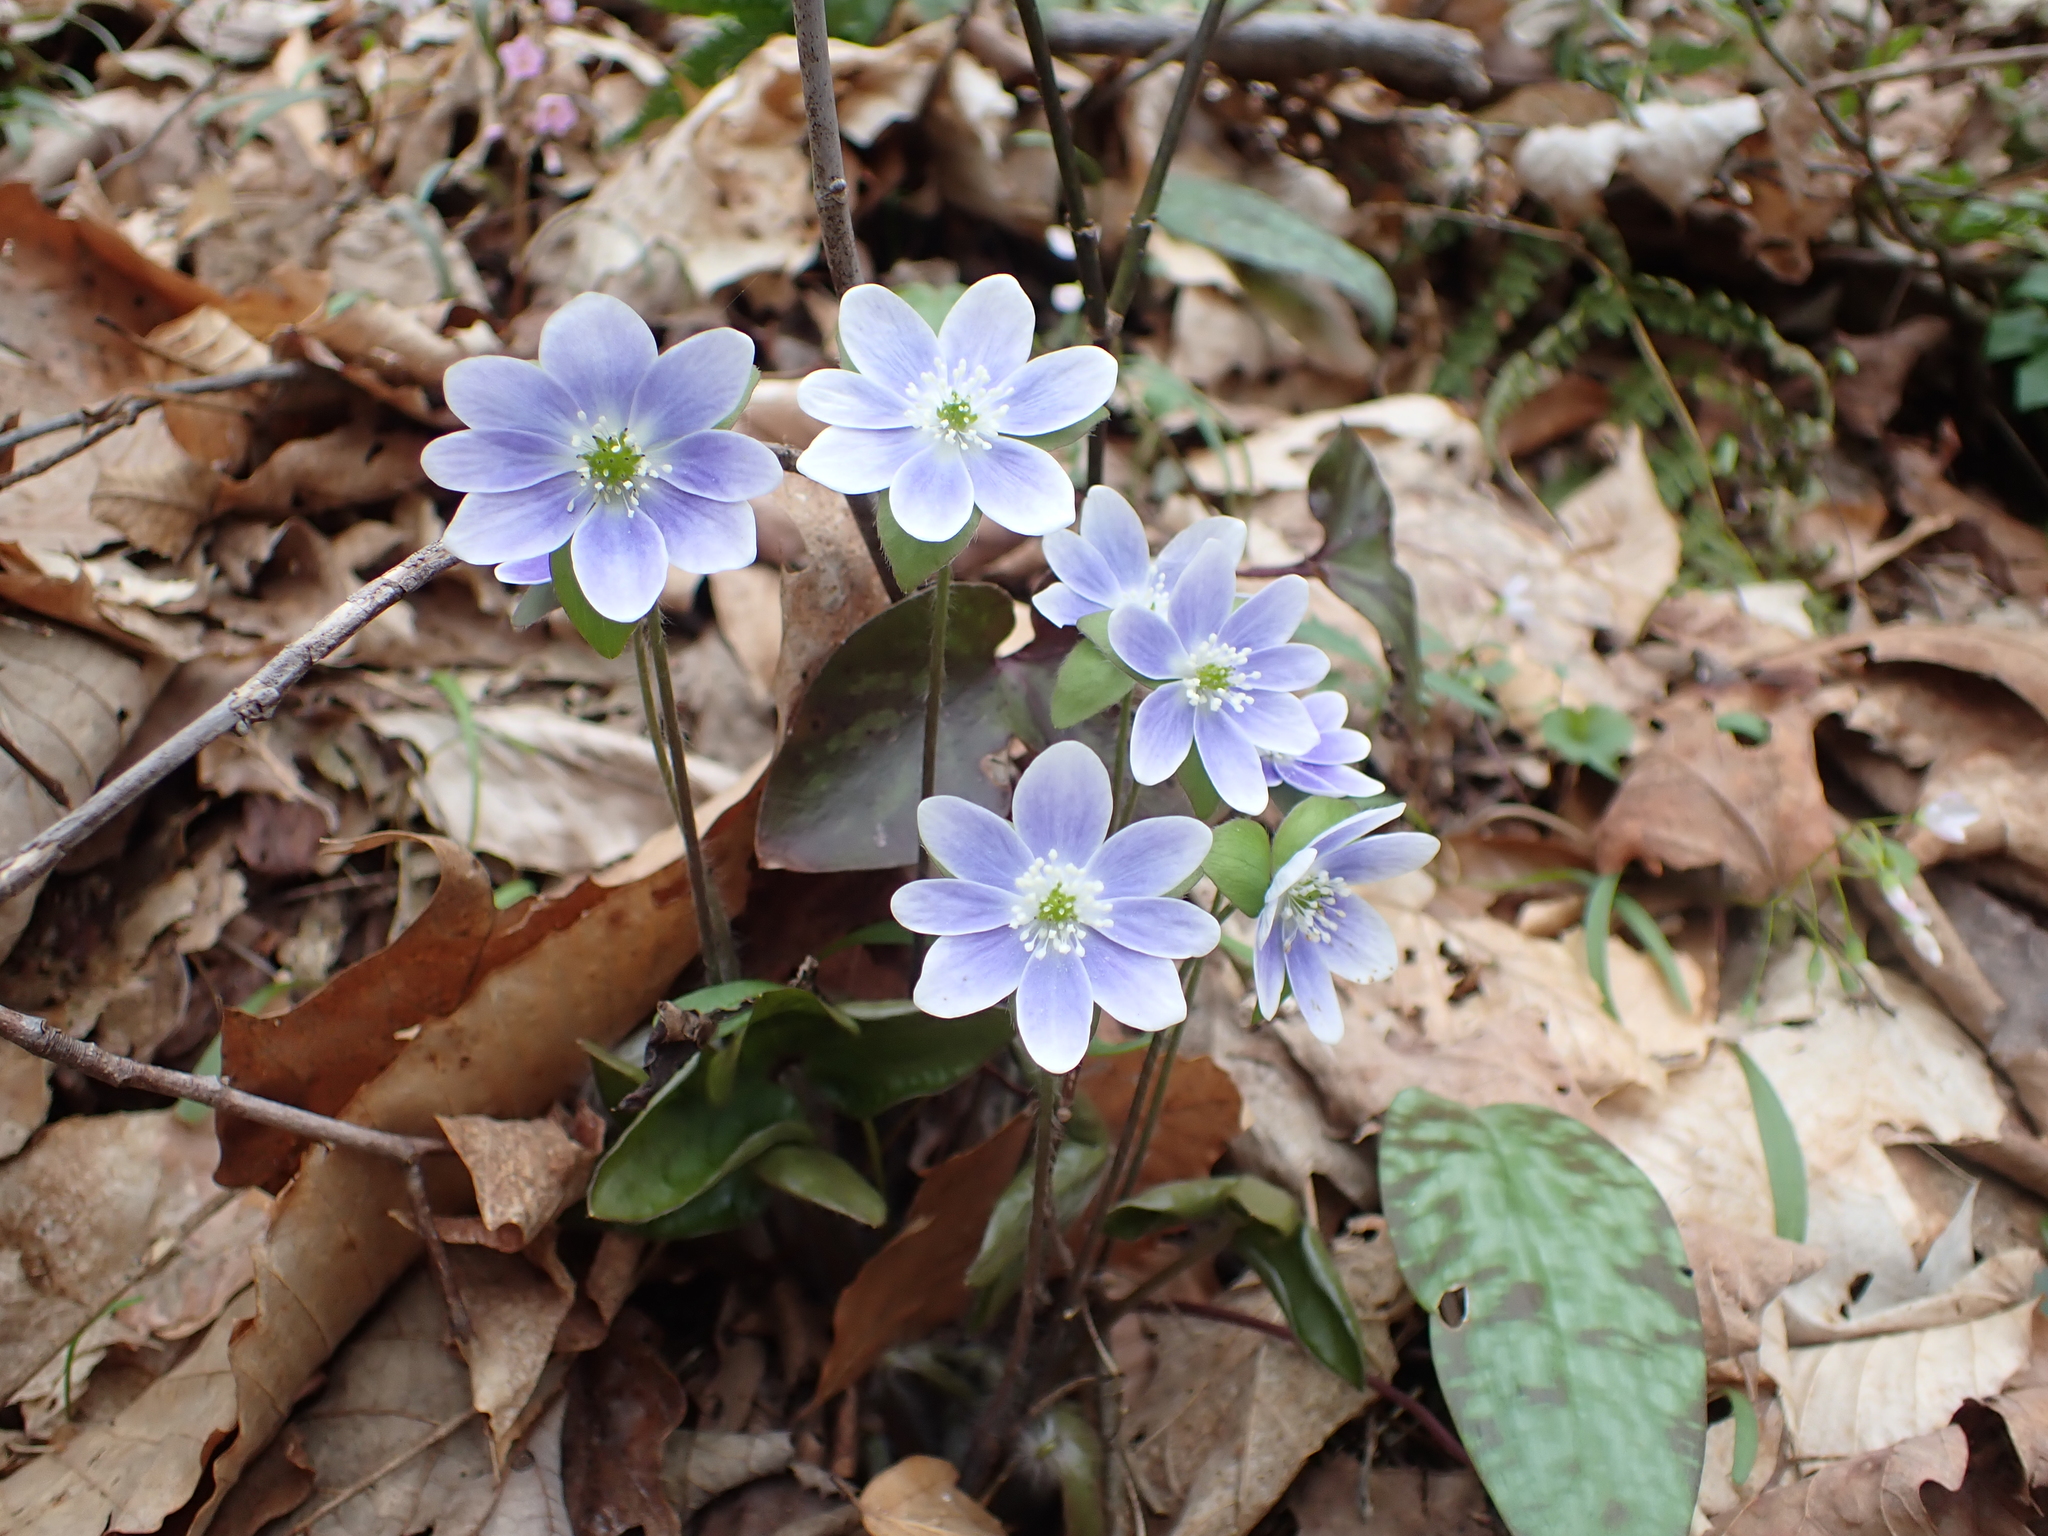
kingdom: Plantae
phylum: Tracheophyta
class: Magnoliopsida
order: Ranunculales
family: Ranunculaceae
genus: Hepatica
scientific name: Hepatica acutiloba
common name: Sharp-lobed hepatica
